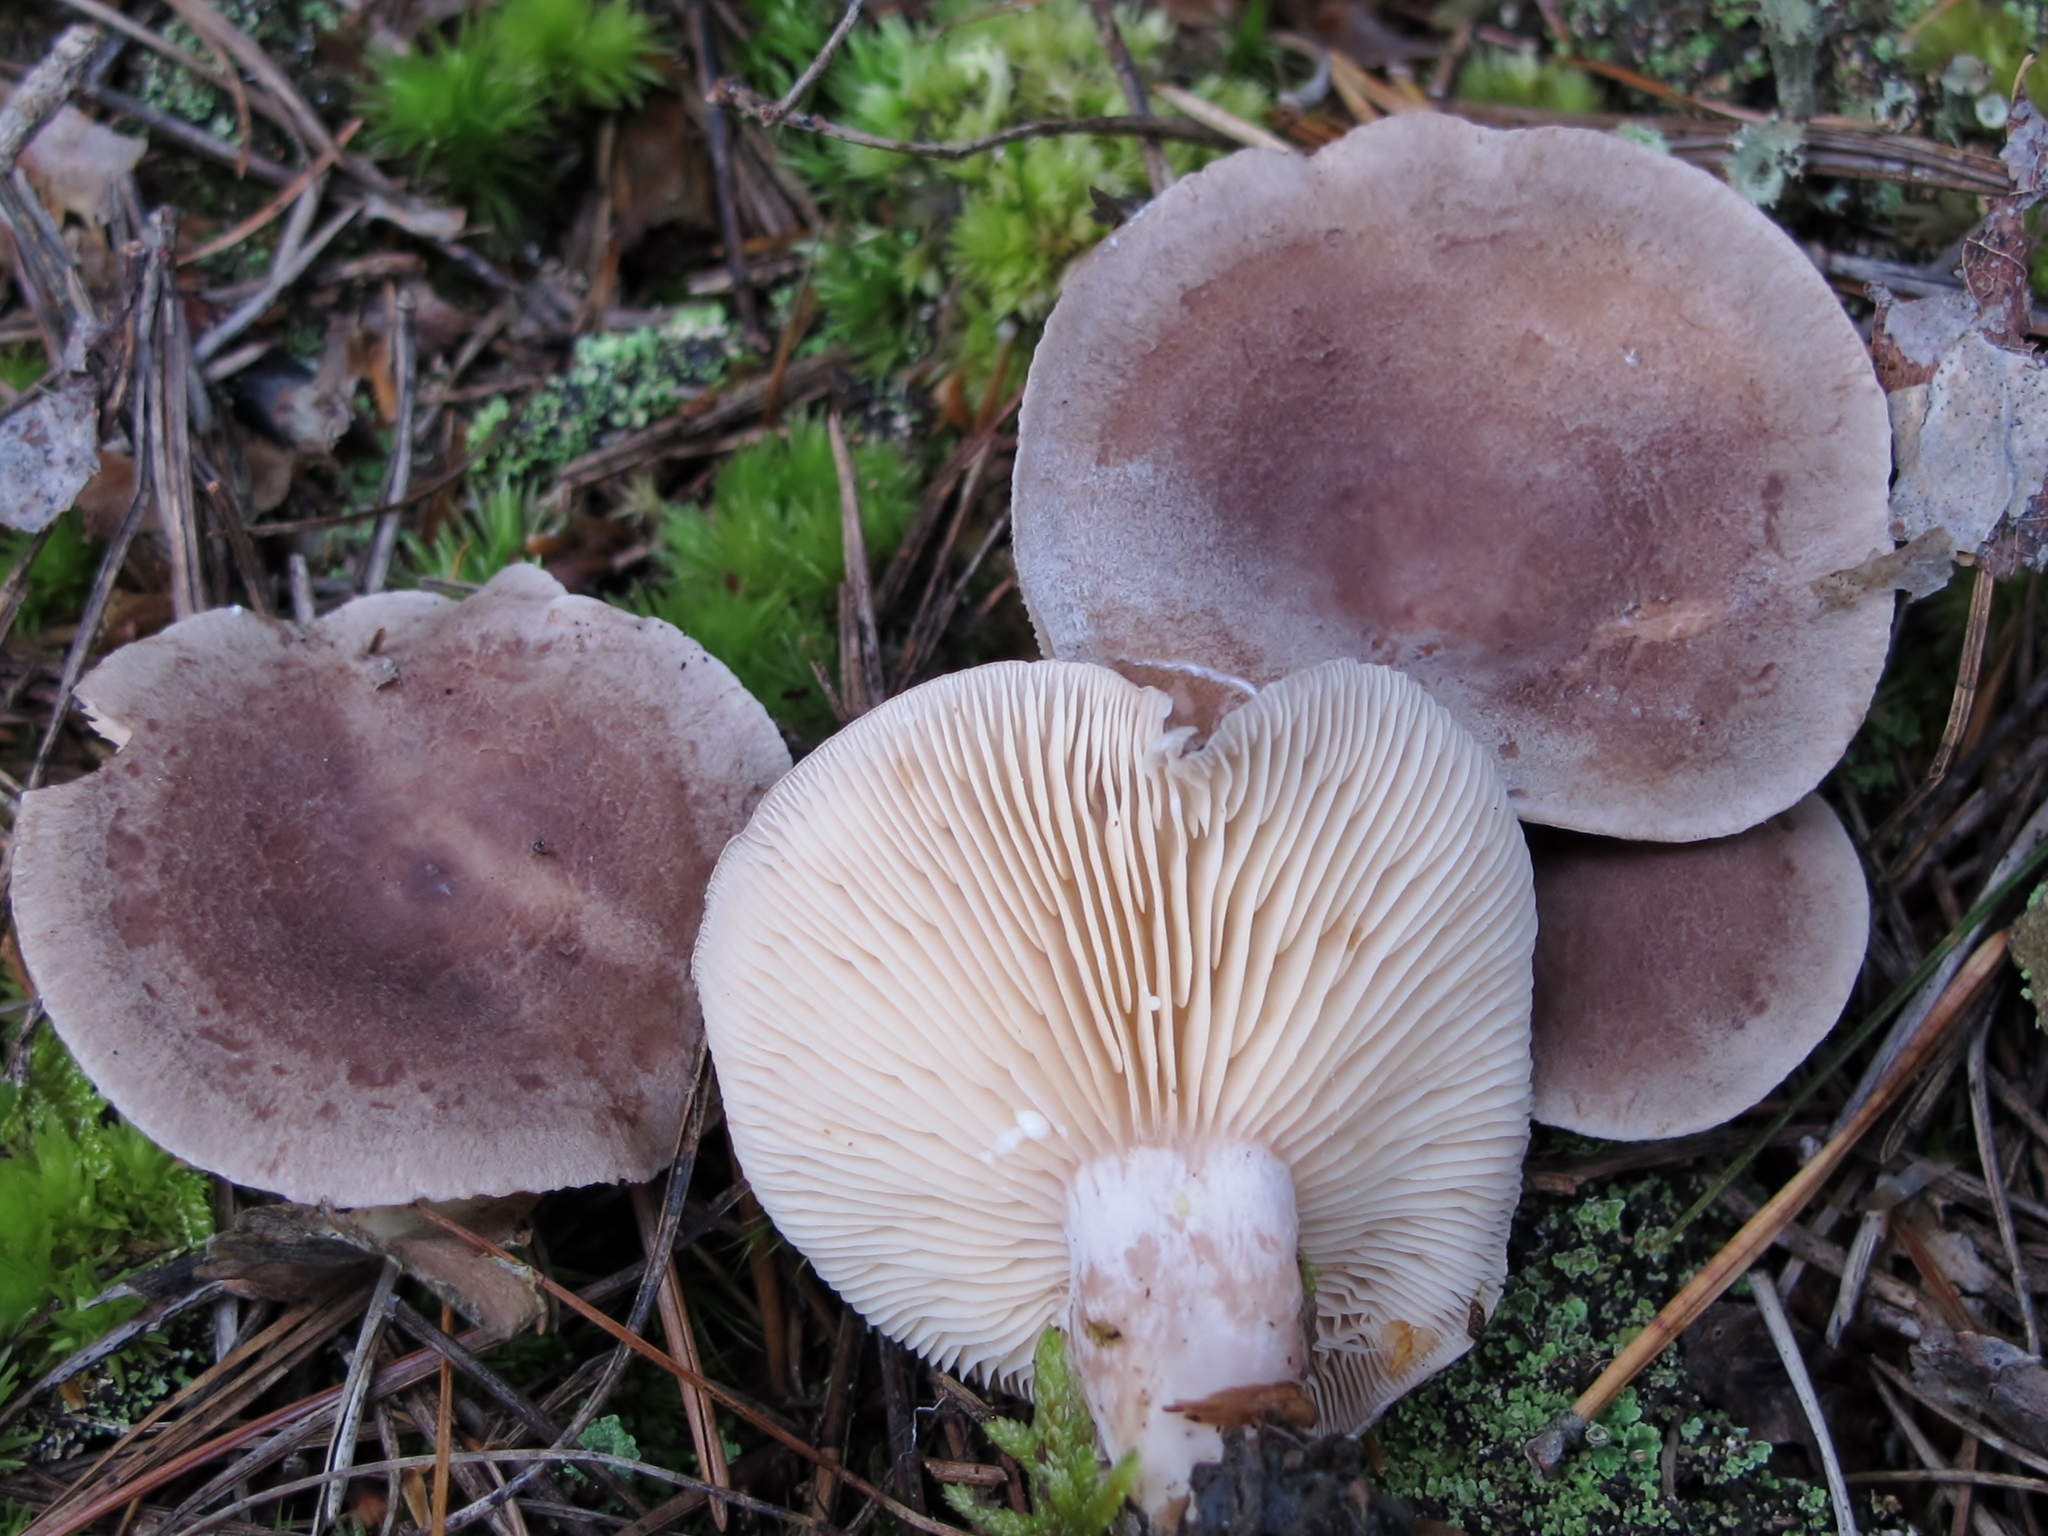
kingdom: Fungi
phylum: Basidiomycota
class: Agaricomycetes
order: Russulales
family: Russulaceae
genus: Lactarius
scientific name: Lactarius mammosus
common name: Pap milkcap
